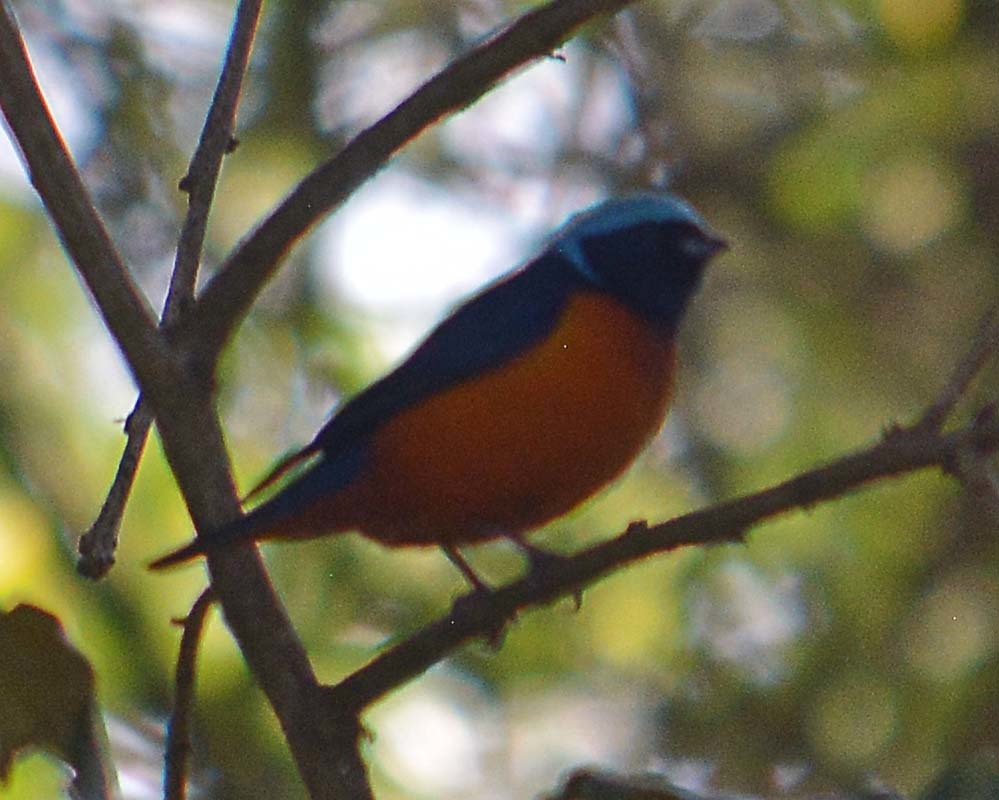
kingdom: Animalia
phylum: Chordata
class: Aves
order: Passeriformes
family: Fringillidae
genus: Euphonia
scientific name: Euphonia elegantissima
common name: Elegant euphonia
